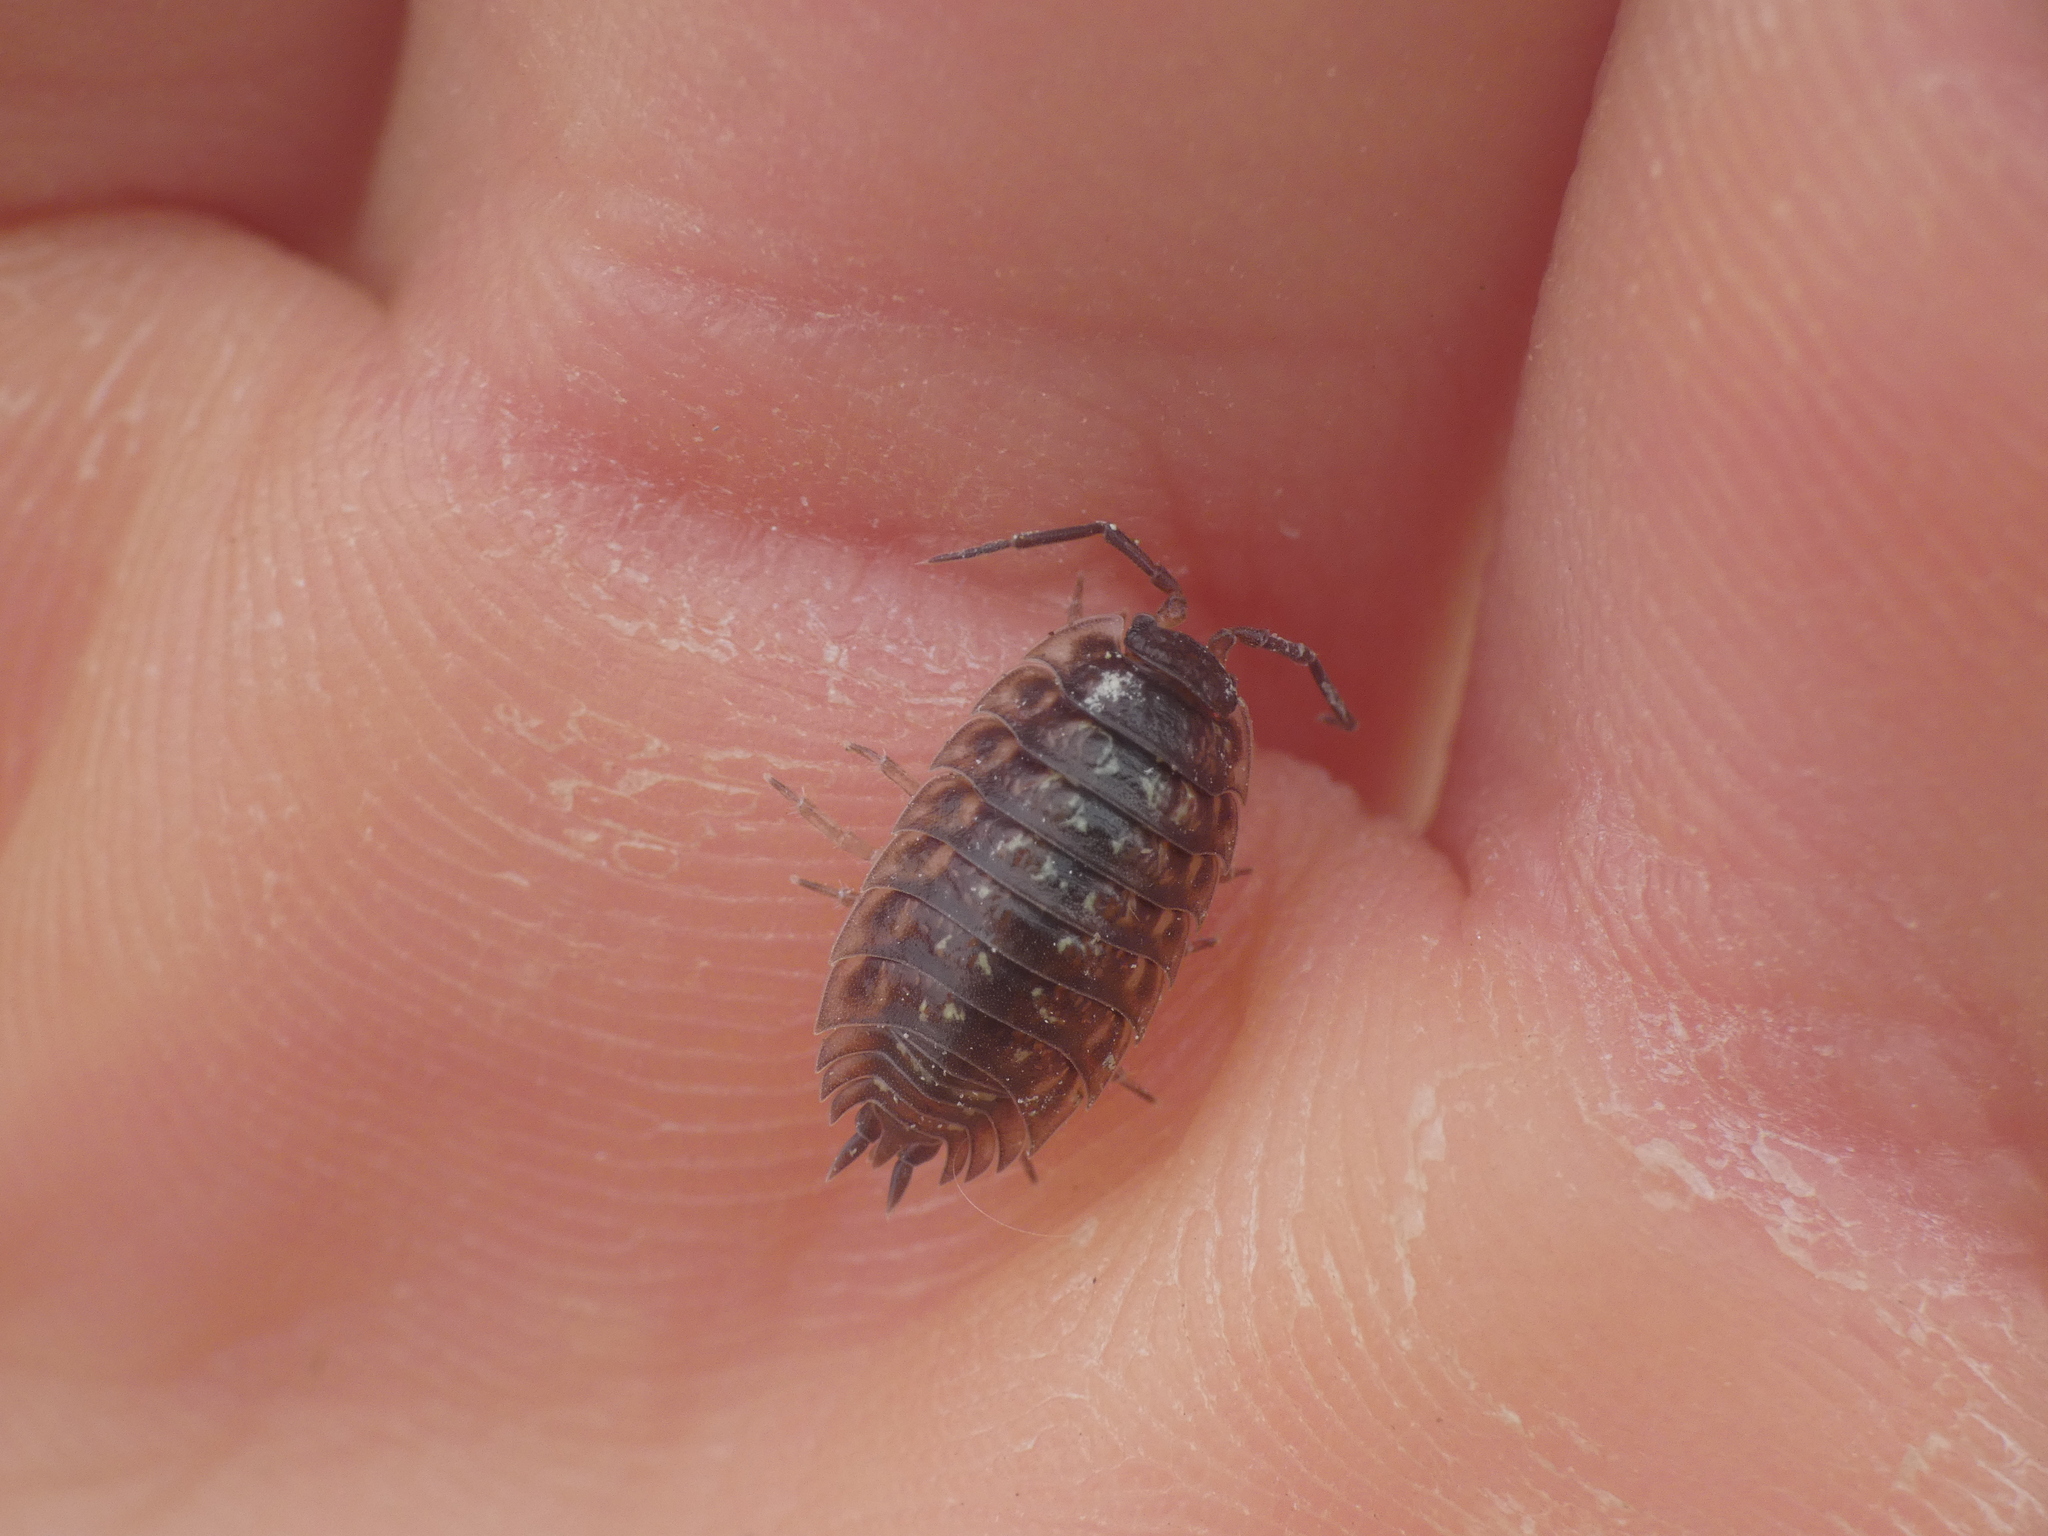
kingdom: Animalia
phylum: Arthropoda
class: Malacostraca
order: Isopoda
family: Oniscidae
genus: Oniscus
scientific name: Oniscus asellus
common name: Common shiny woodlouse
